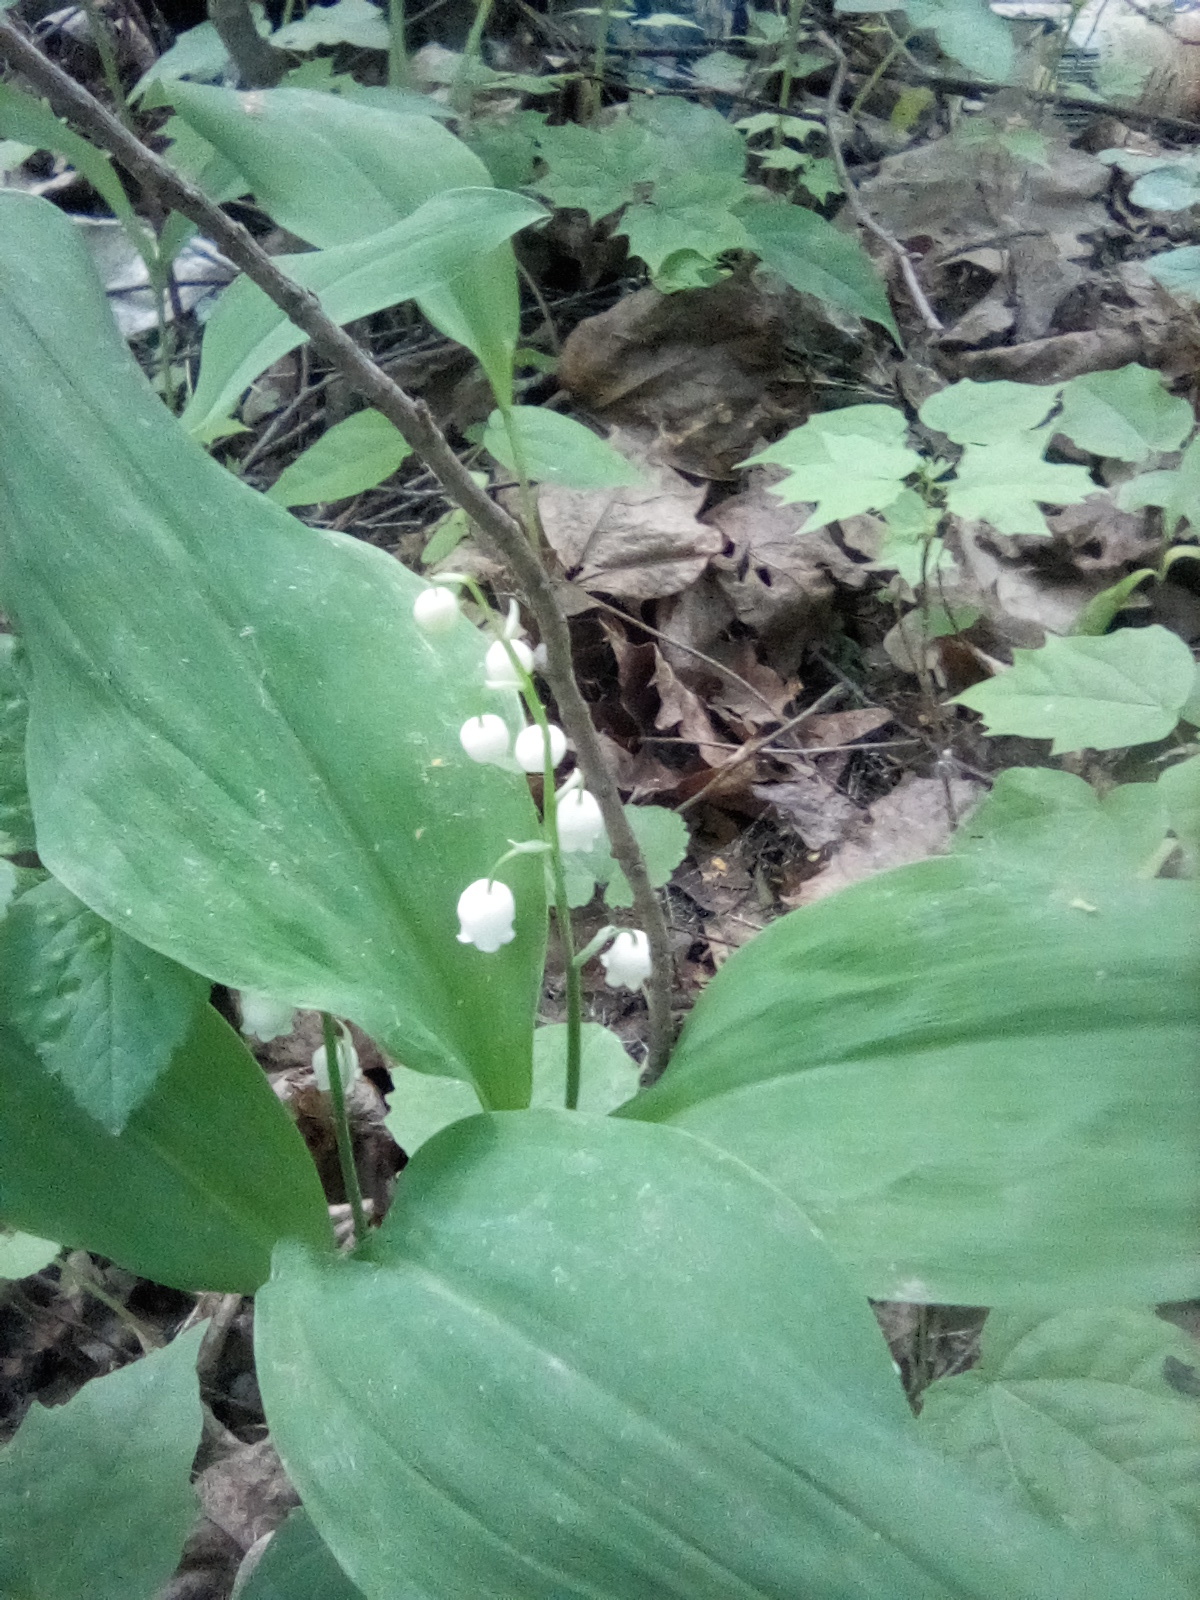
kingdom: Plantae
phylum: Tracheophyta
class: Liliopsida
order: Asparagales
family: Asparagaceae
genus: Convallaria
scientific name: Convallaria majalis
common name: Lily-of-the-valley
